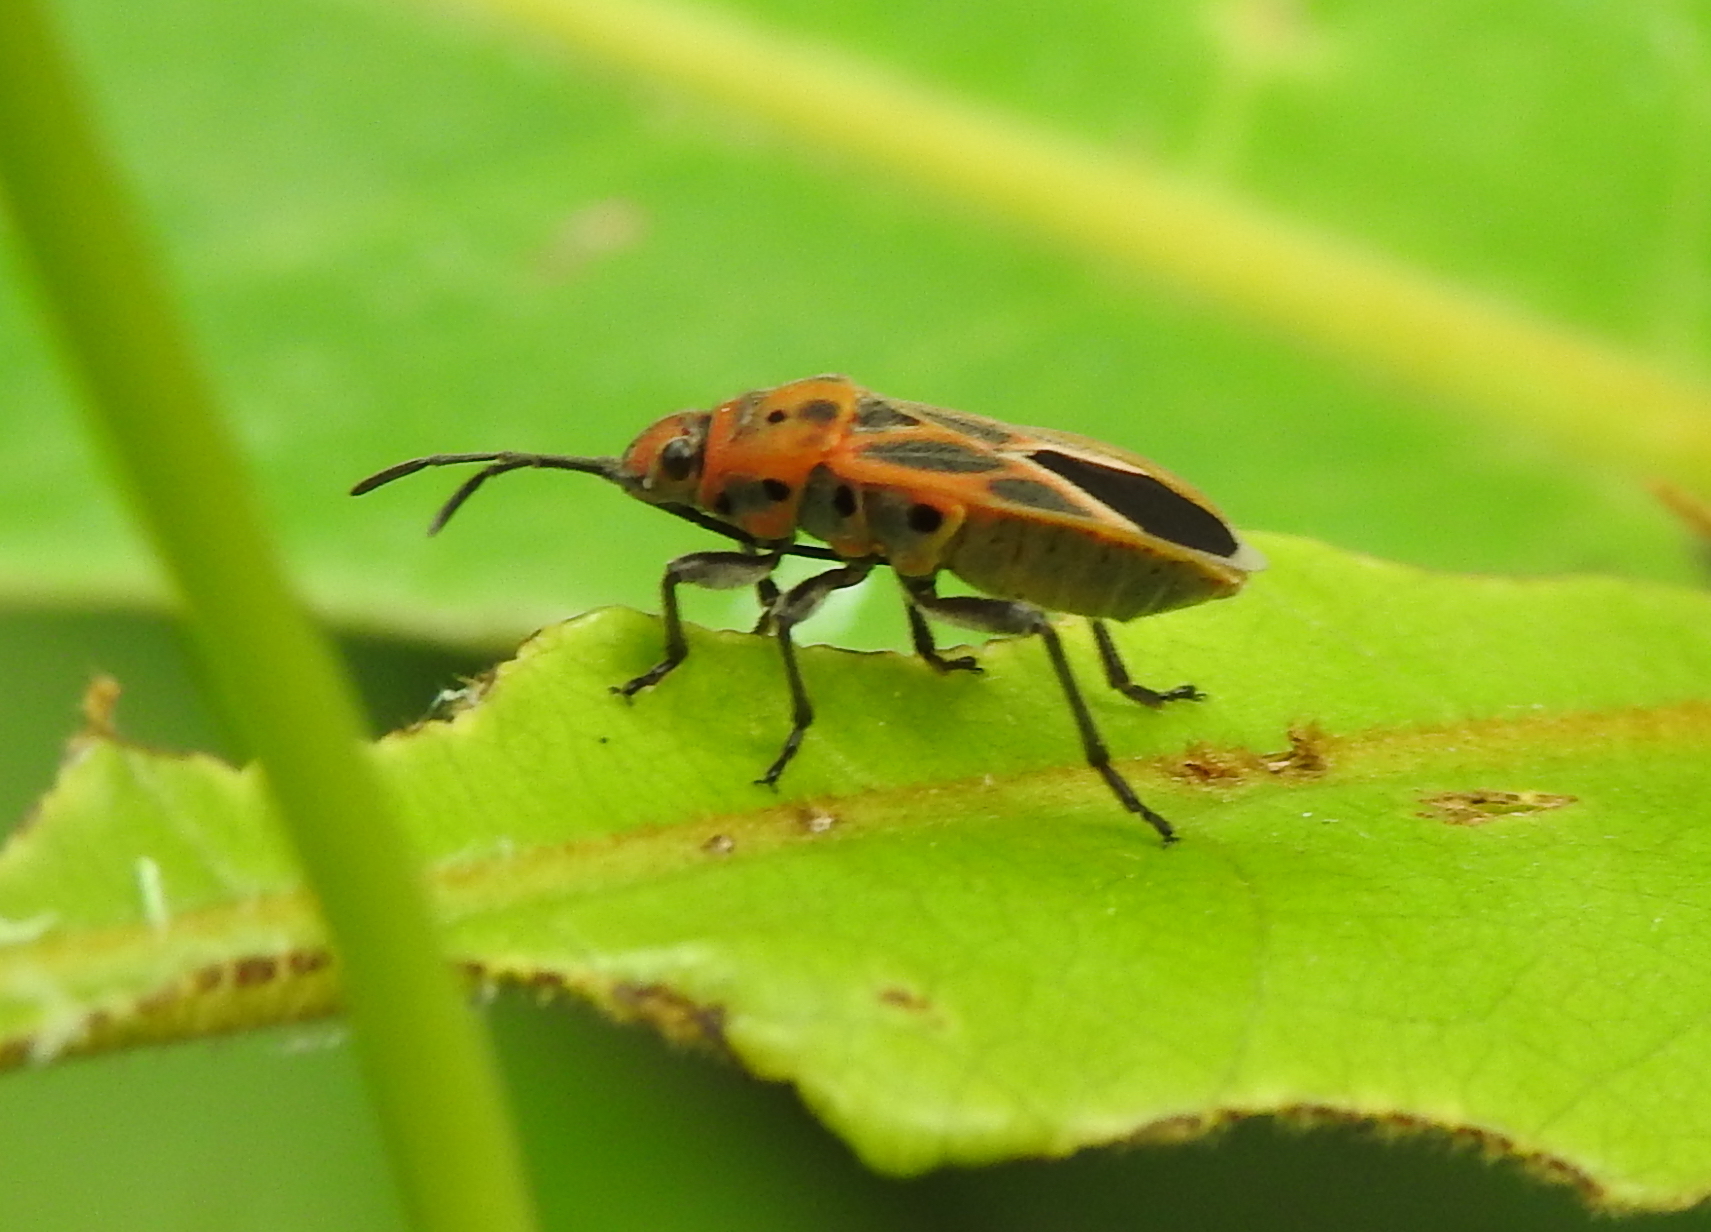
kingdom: Animalia
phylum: Arthropoda
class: Insecta
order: Hemiptera
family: Lygaeidae
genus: Graptostethus
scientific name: Graptostethus servus
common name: Lygaeid bug
